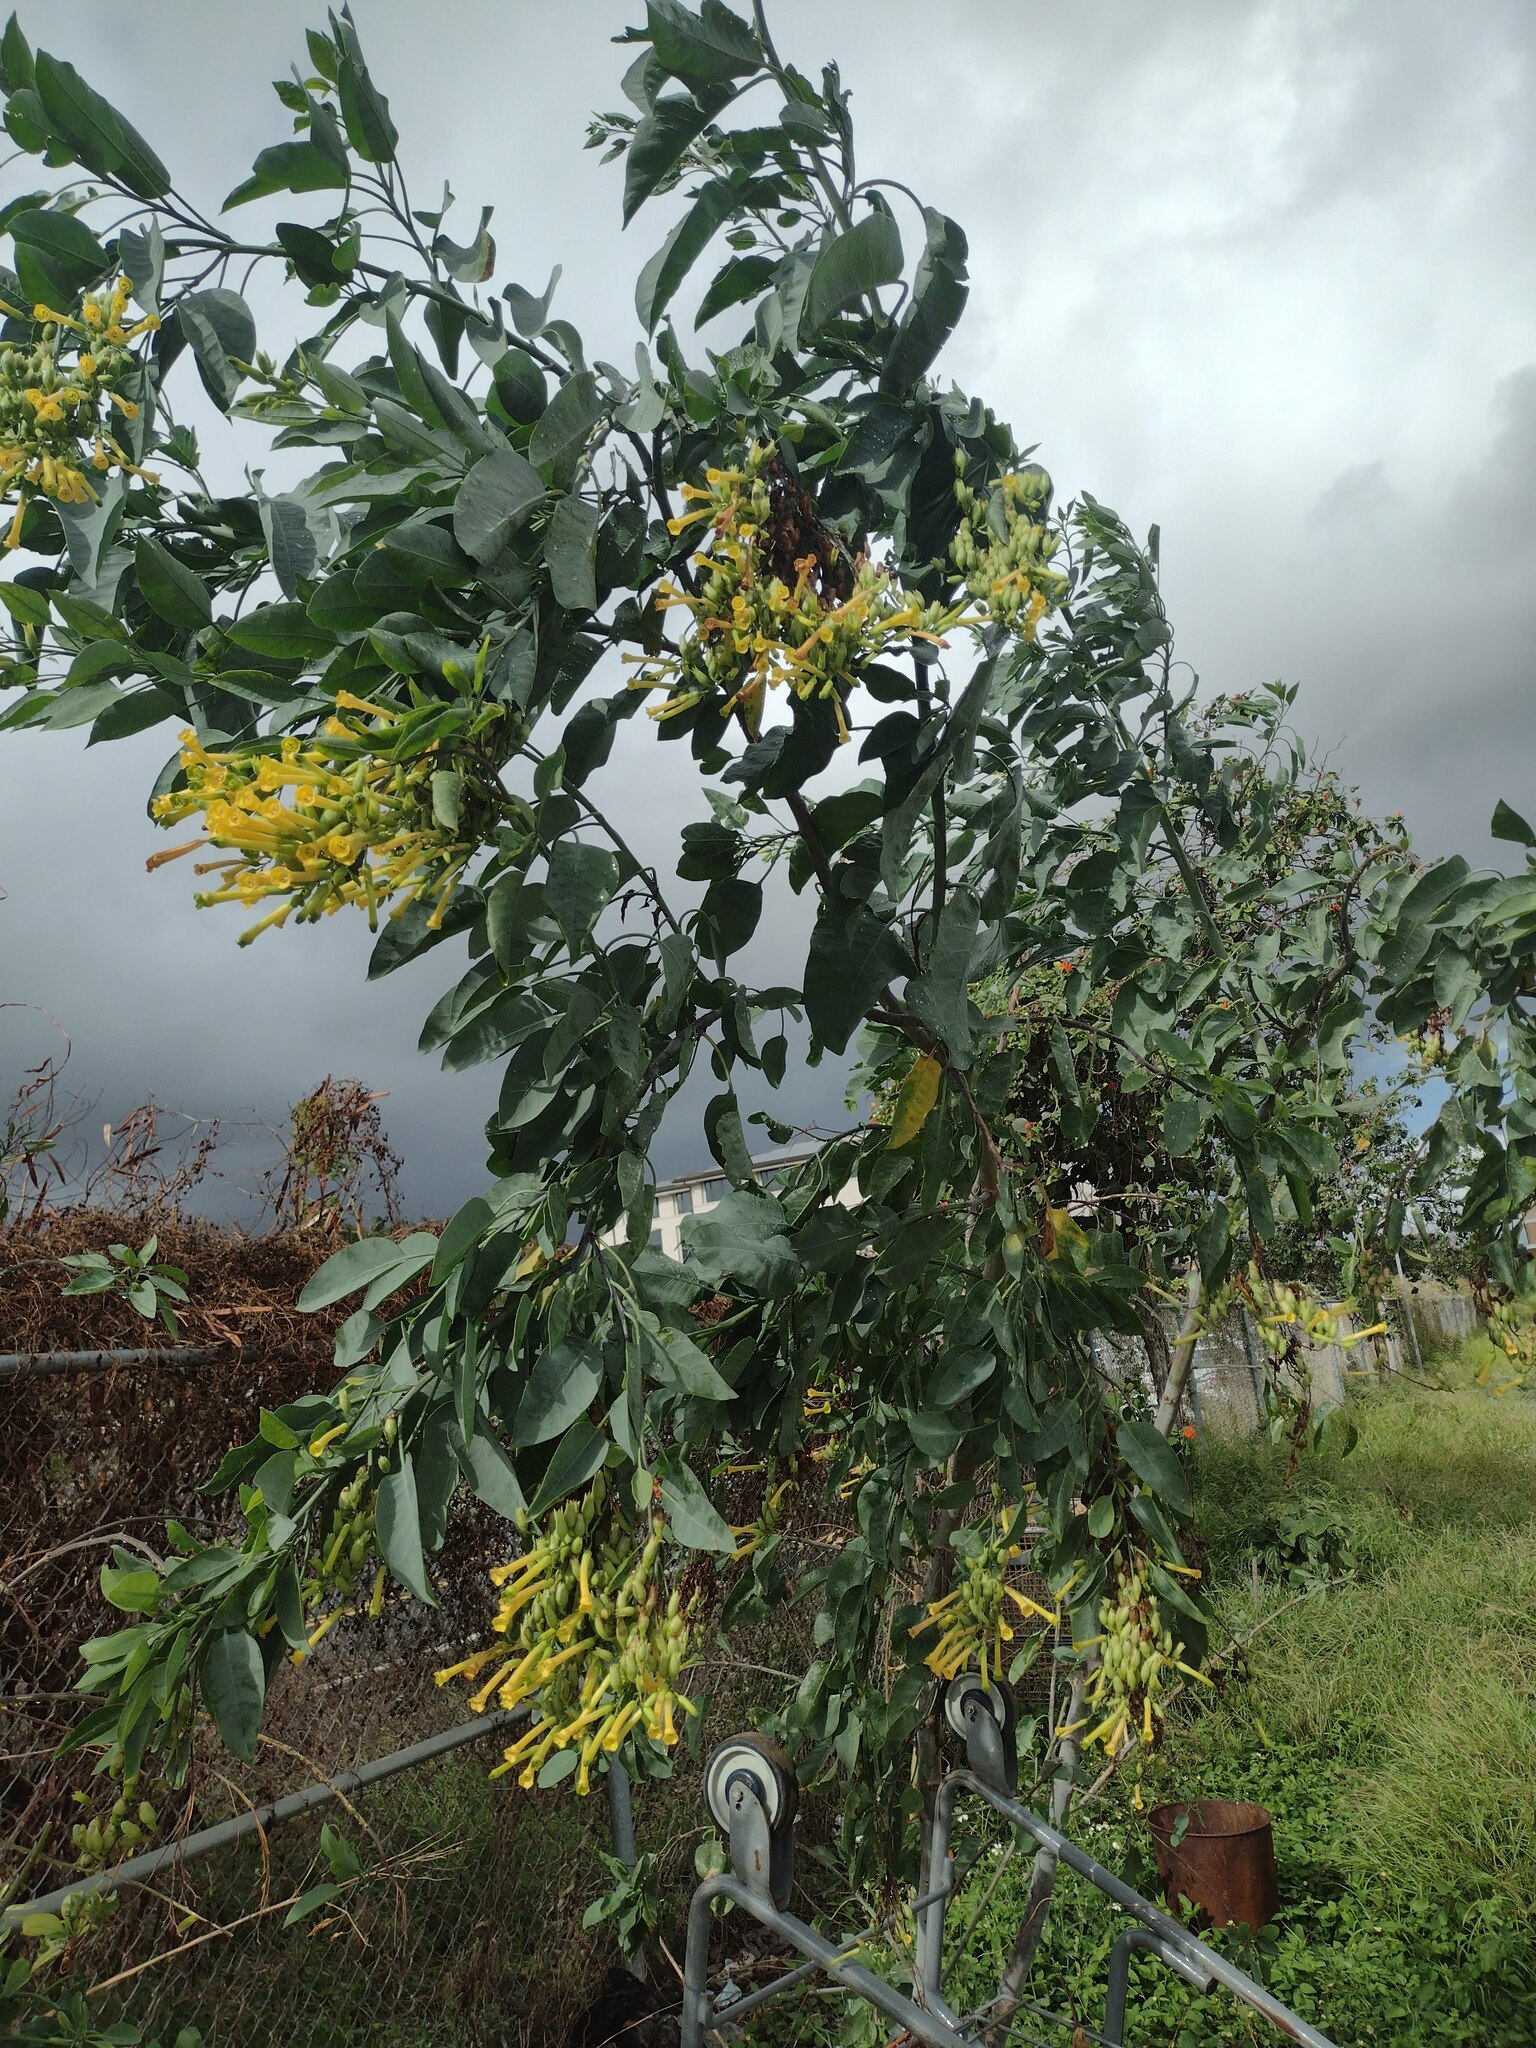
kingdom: Plantae
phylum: Tracheophyta
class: Magnoliopsida
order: Solanales
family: Solanaceae
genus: Nicotiana
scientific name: Nicotiana glauca
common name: Tree tobacco
